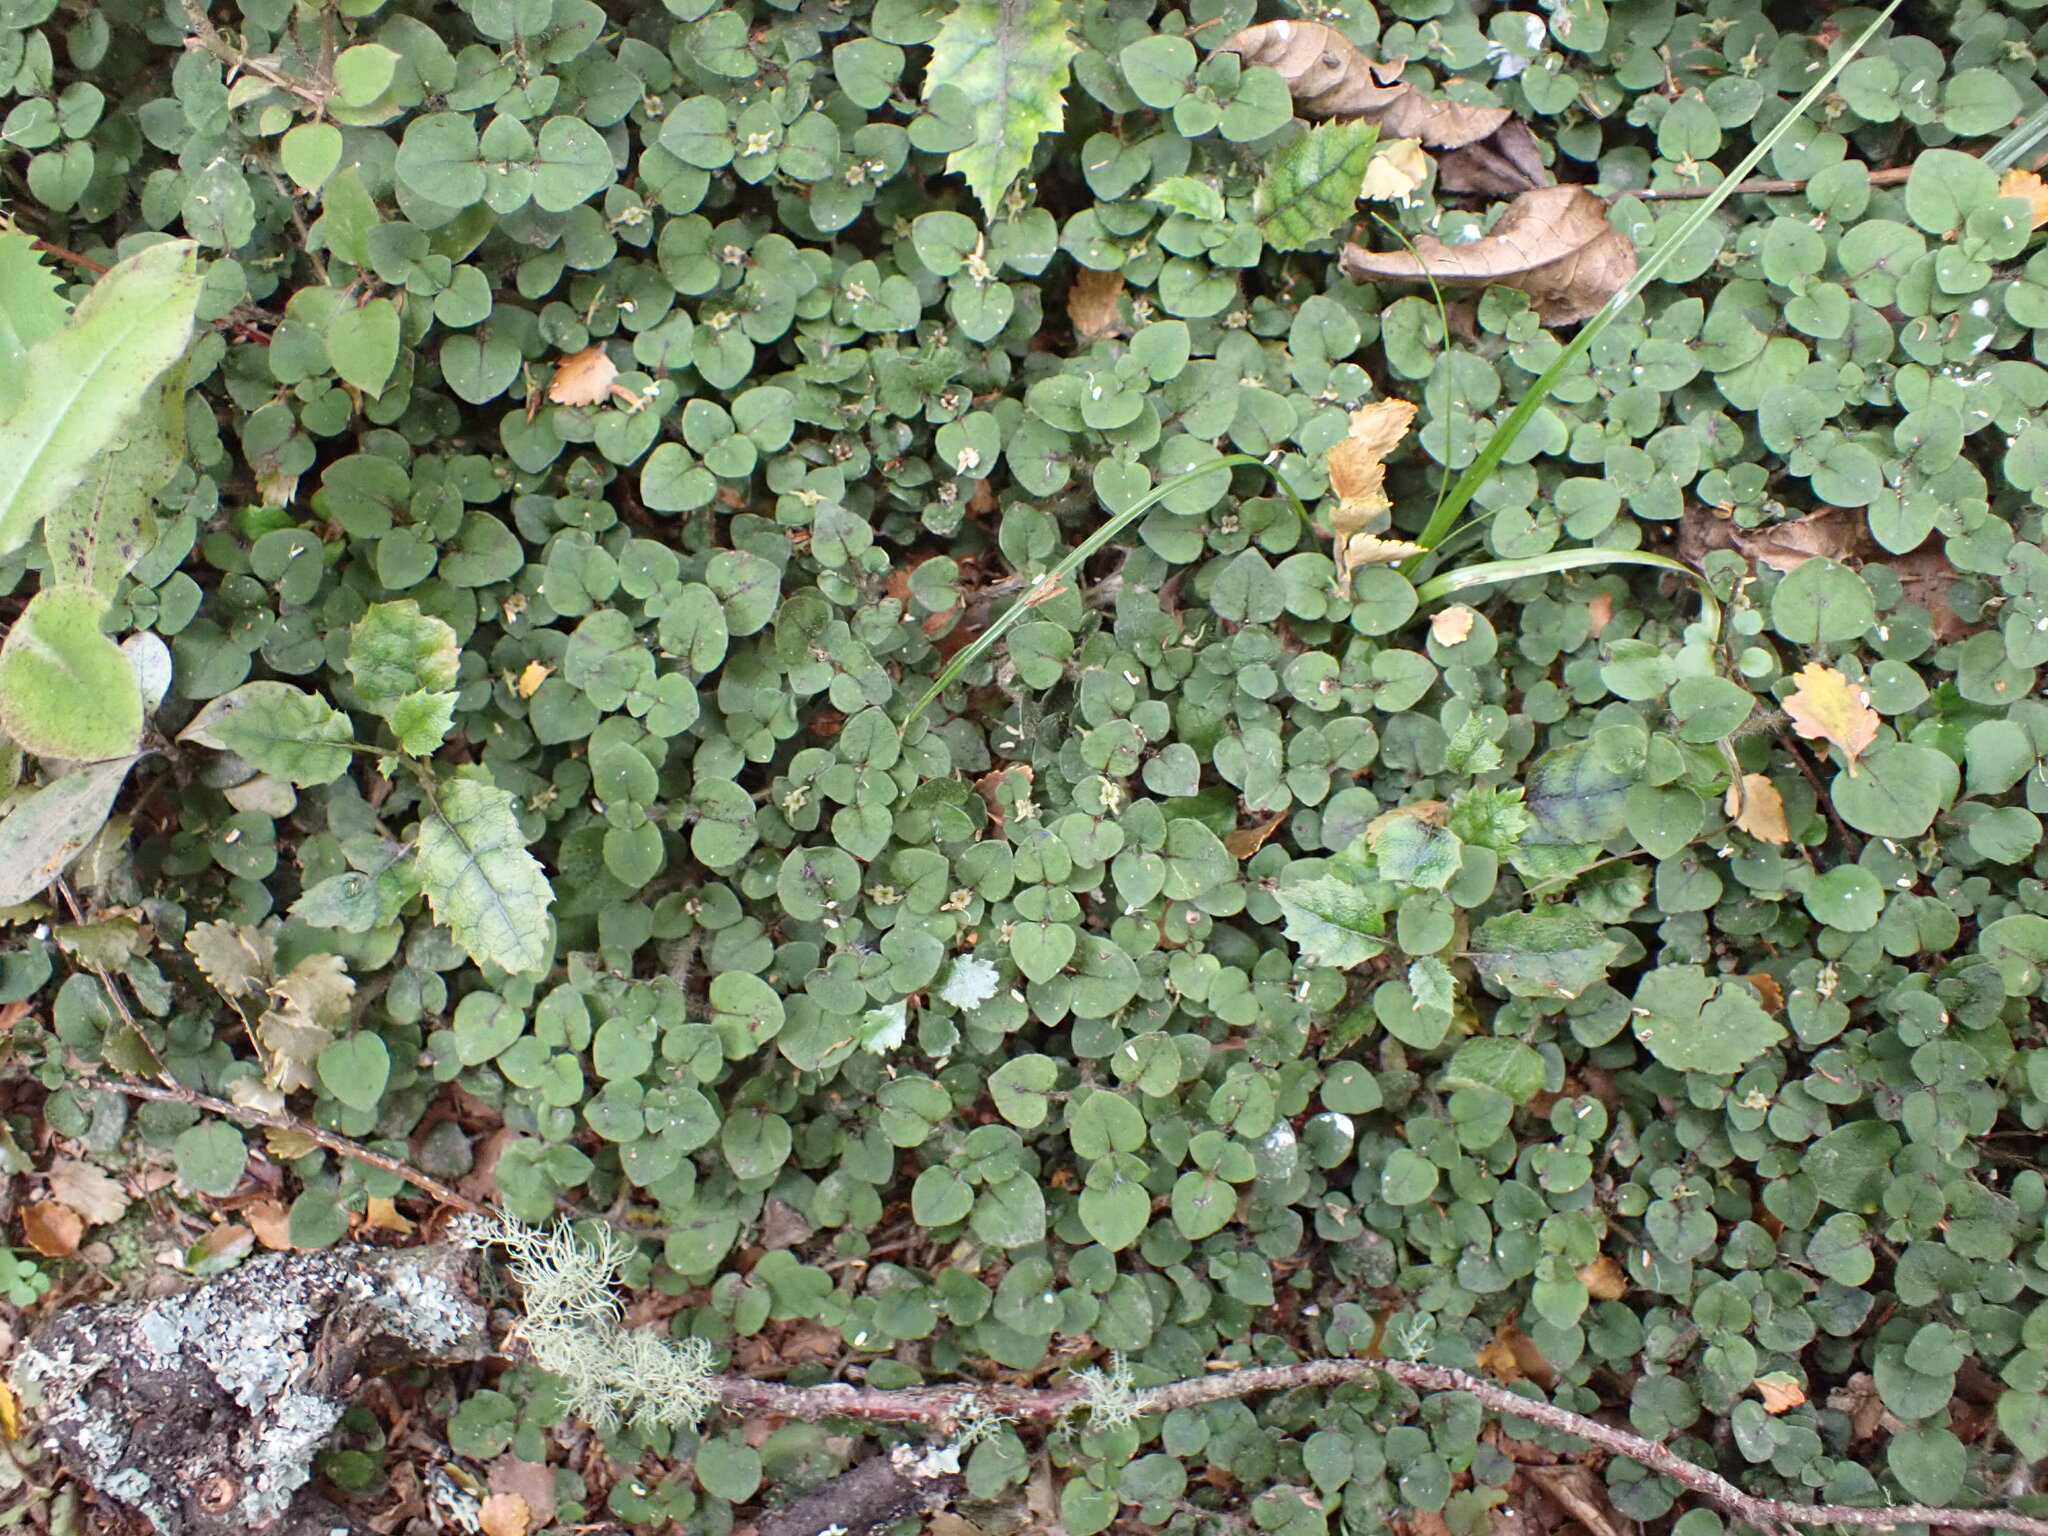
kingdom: Plantae
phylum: Tracheophyta
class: Magnoliopsida
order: Gentianales
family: Rubiaceae
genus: Nertera
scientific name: Nertera villosa
